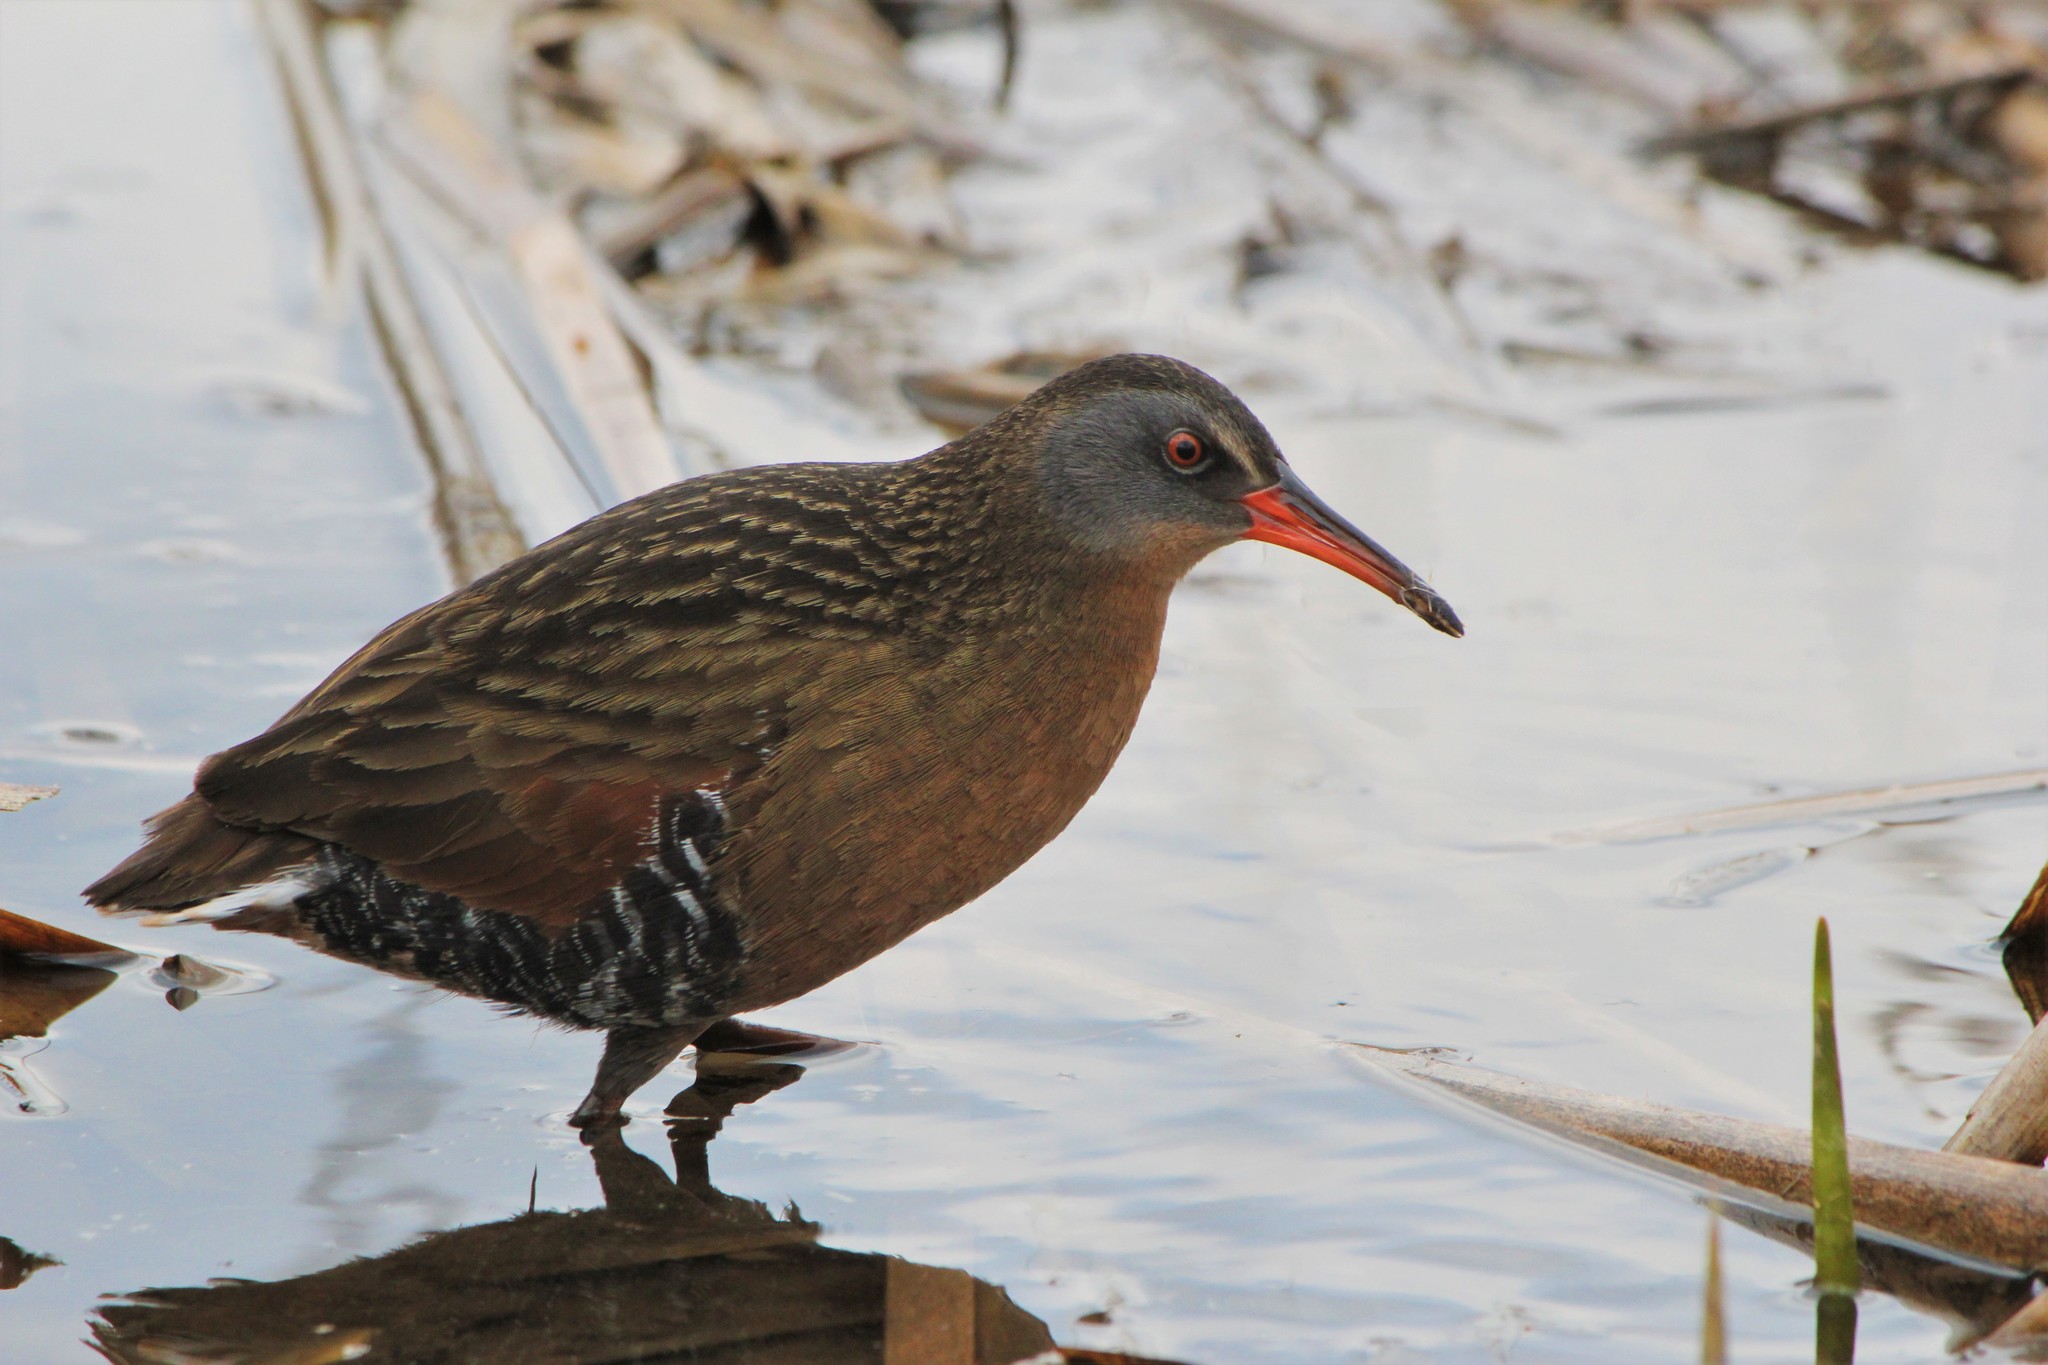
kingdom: Animalia
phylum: Chordata
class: Aves
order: Gruiformes
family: Rallidae
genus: Rallus
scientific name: Rallus limicola
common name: Virginia rail
